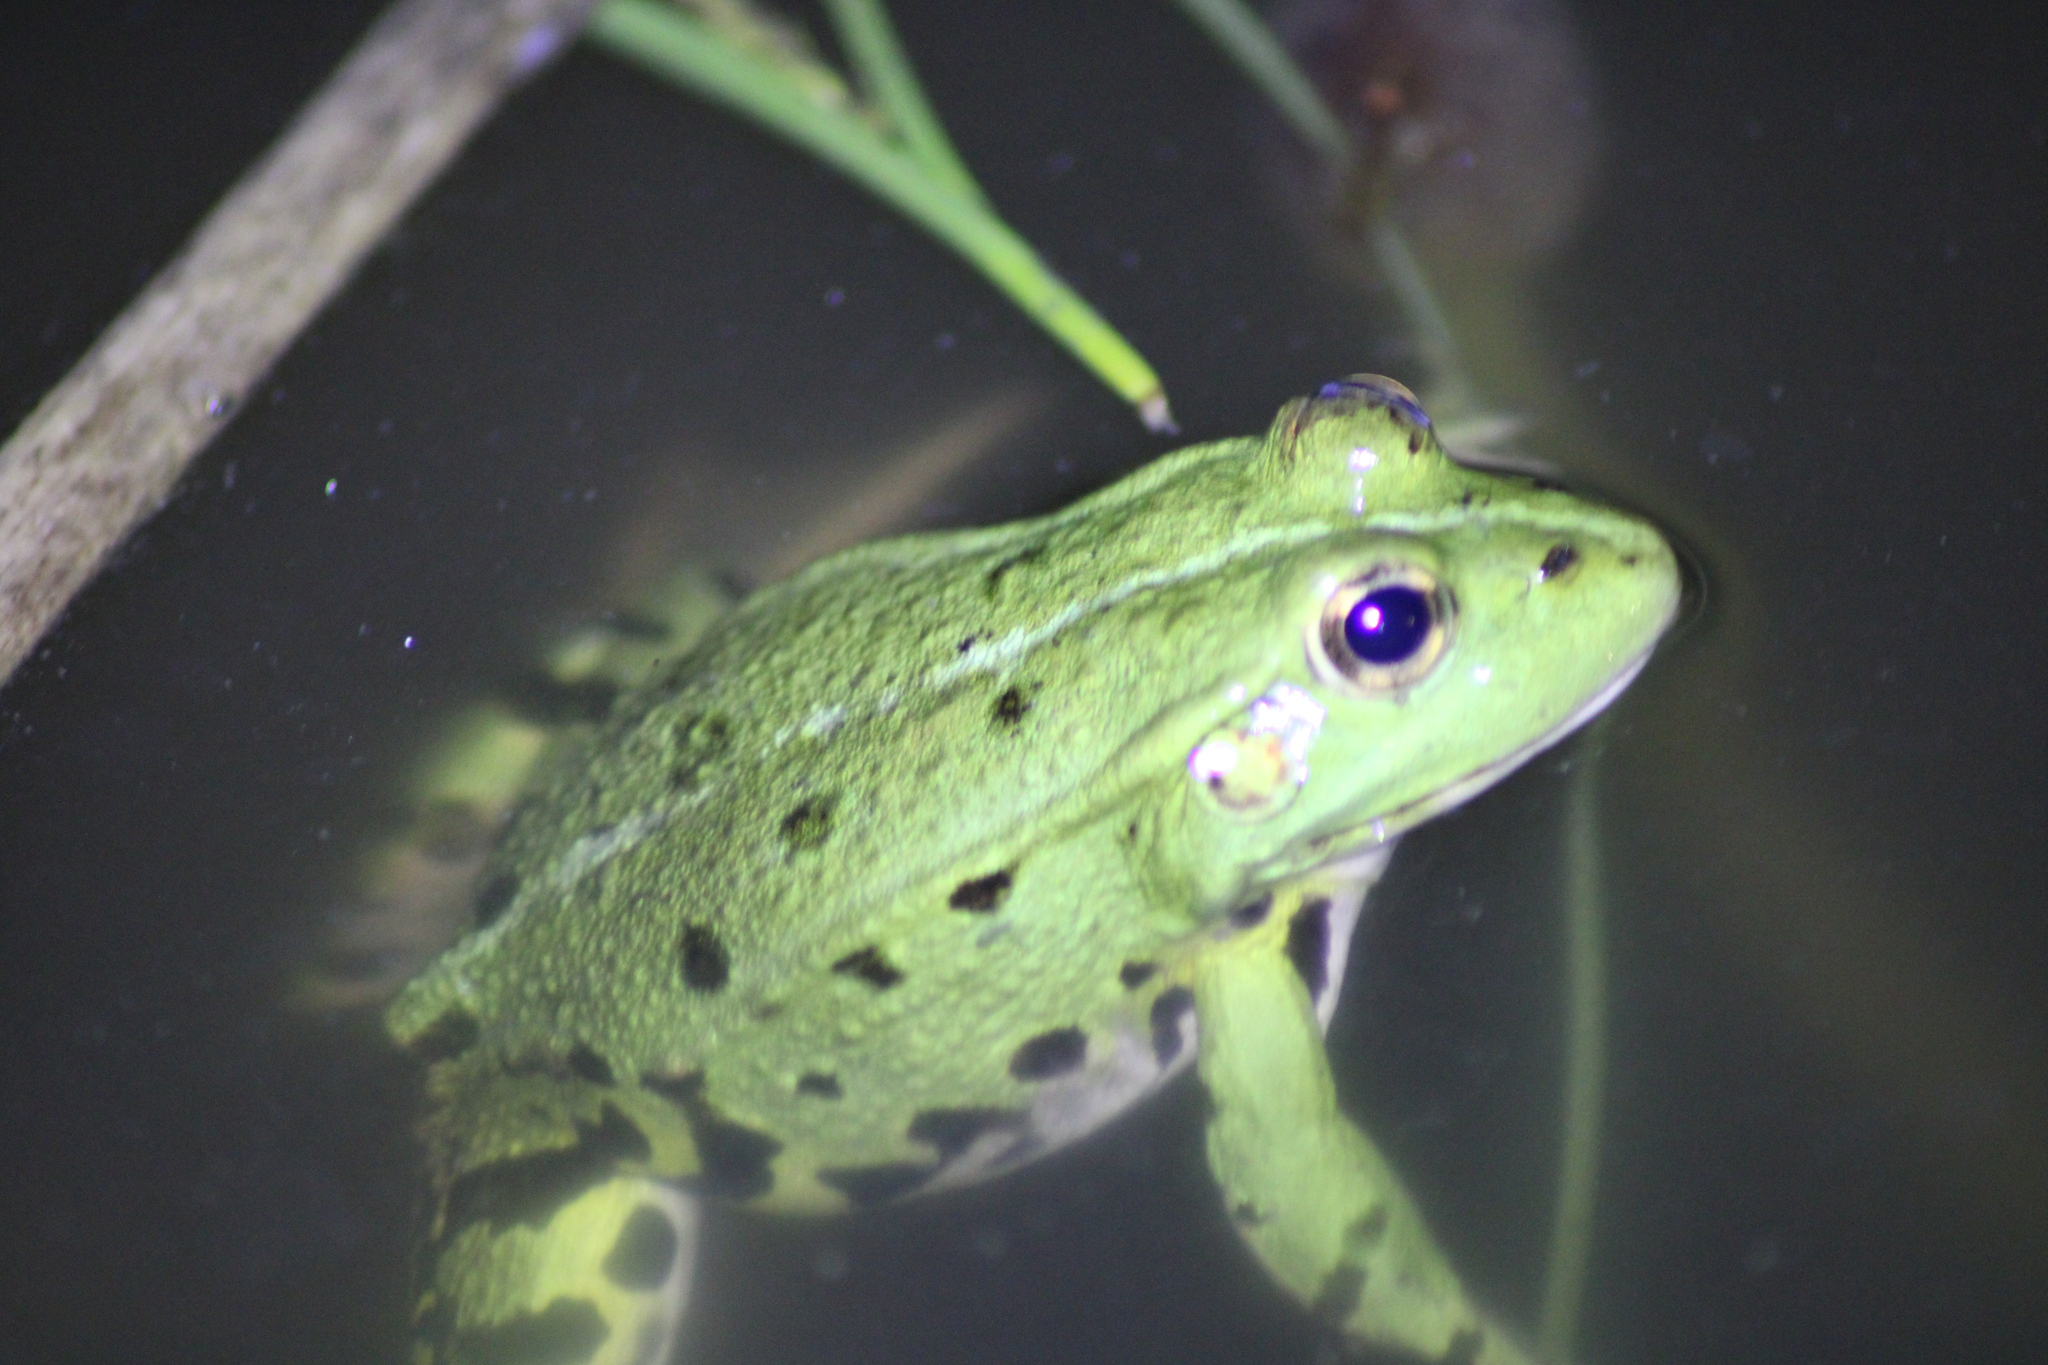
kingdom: Animalia
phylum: Chordata
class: Amphibia
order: Anura
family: Ranidae
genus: Pelophylax
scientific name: Pelophylax
